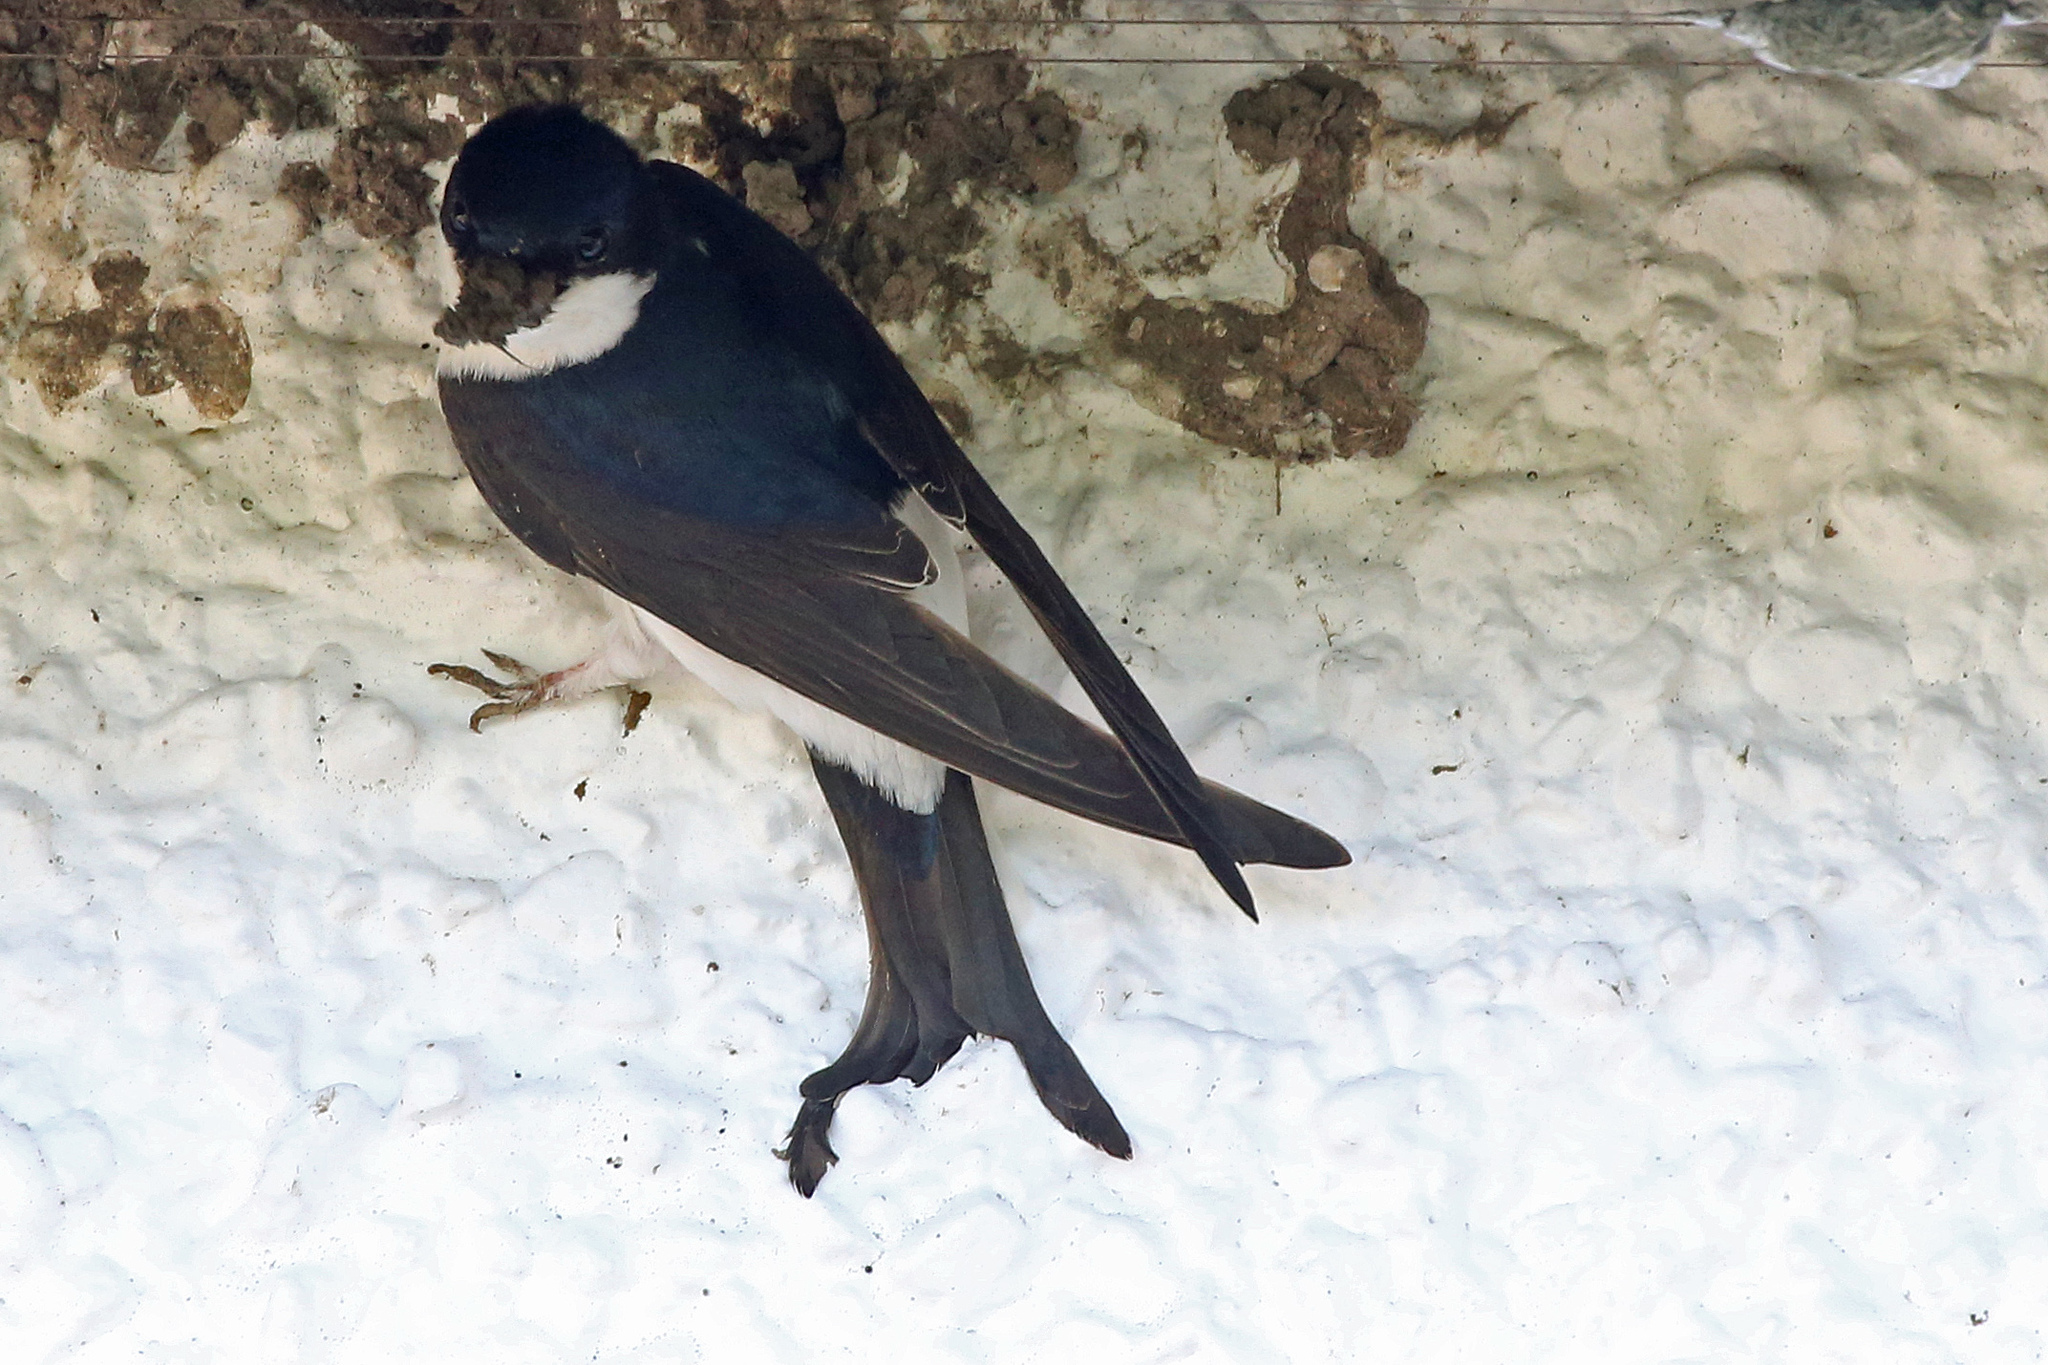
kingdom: Animalia
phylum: Chordata
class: Aves
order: Passeriformes
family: Hirundinidae
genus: Delichon
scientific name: Delichon urbicum
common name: Common house martin
